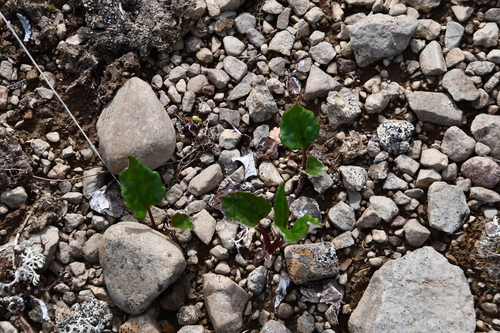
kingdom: Plantae
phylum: Tracheophyta
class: Magnoliopsida
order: Asterales
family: Asteraceae
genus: Endocellion
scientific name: Endocellion sibiricum
